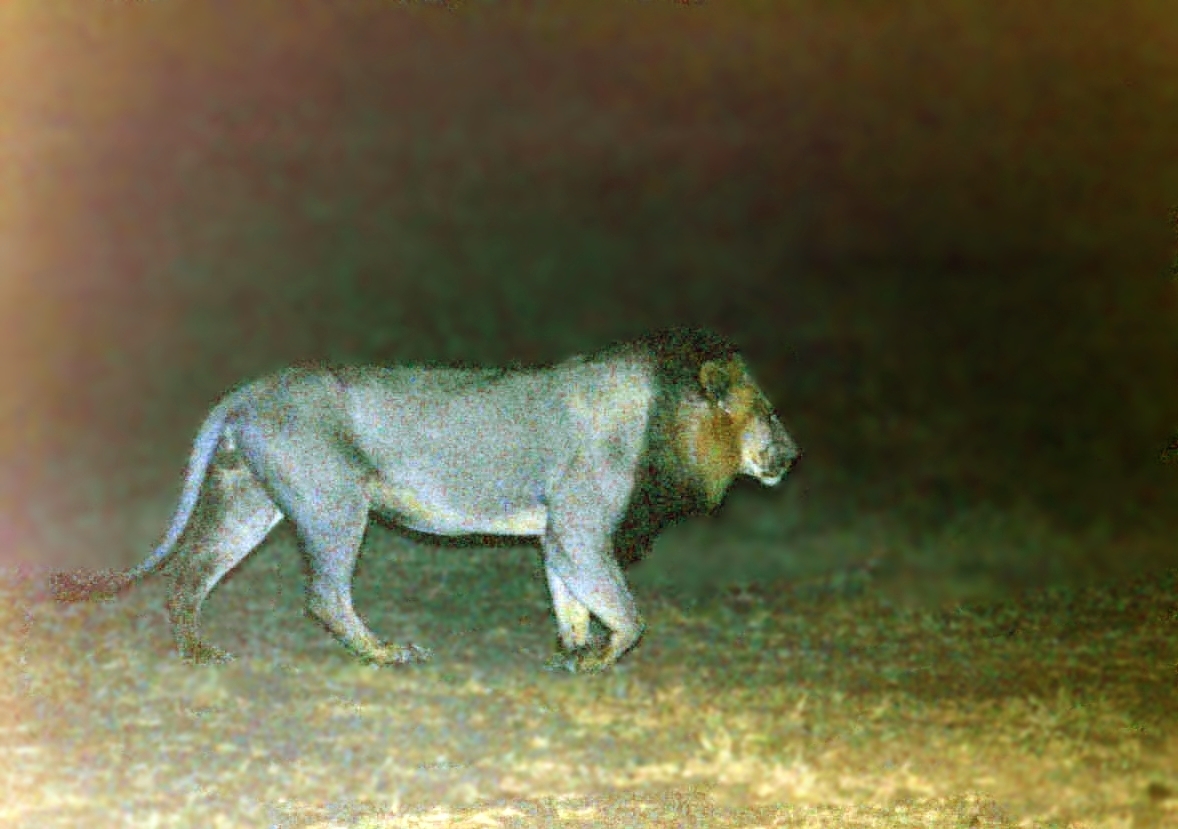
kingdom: Animalia
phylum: Chordata
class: Mammalia
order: Carnivora
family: Felidae
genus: Panthera
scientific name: Panthera leo
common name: Lion
